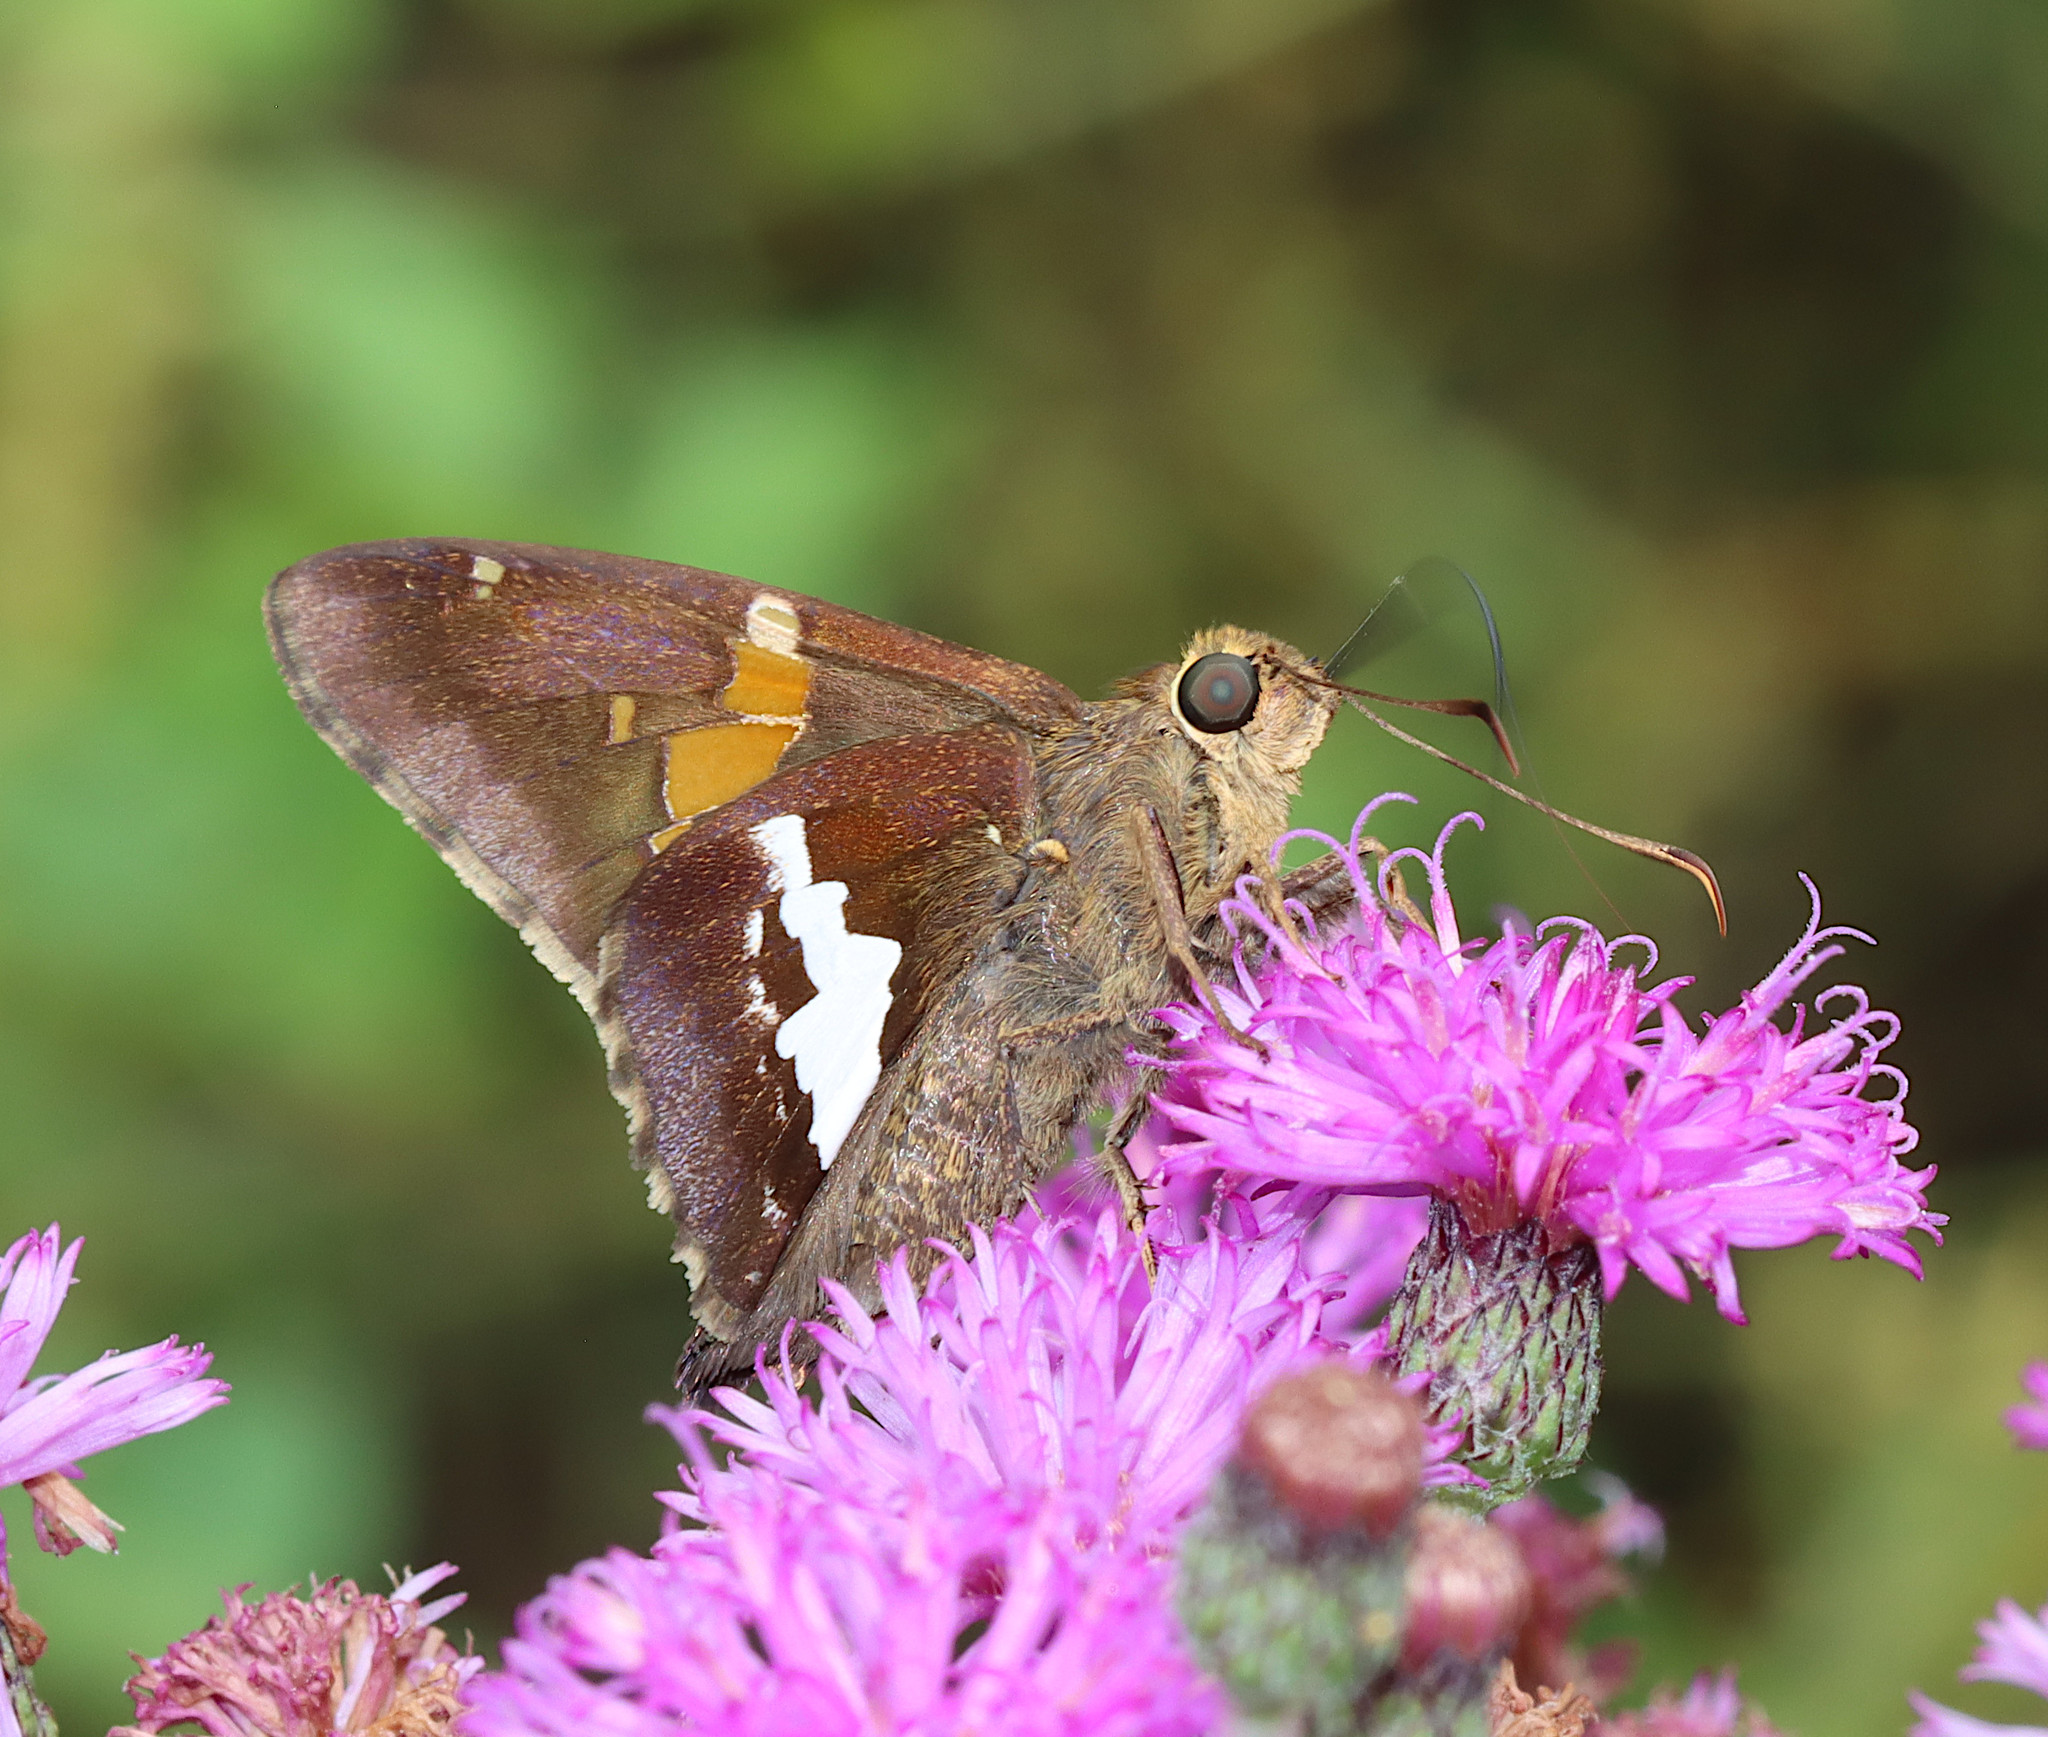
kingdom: Animalia
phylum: Arthropoda
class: Insecta
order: Lepidoptera
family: Hesperiidae
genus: Epargyreus
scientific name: Epargyreus clarus
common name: Silver-spotted skipper
